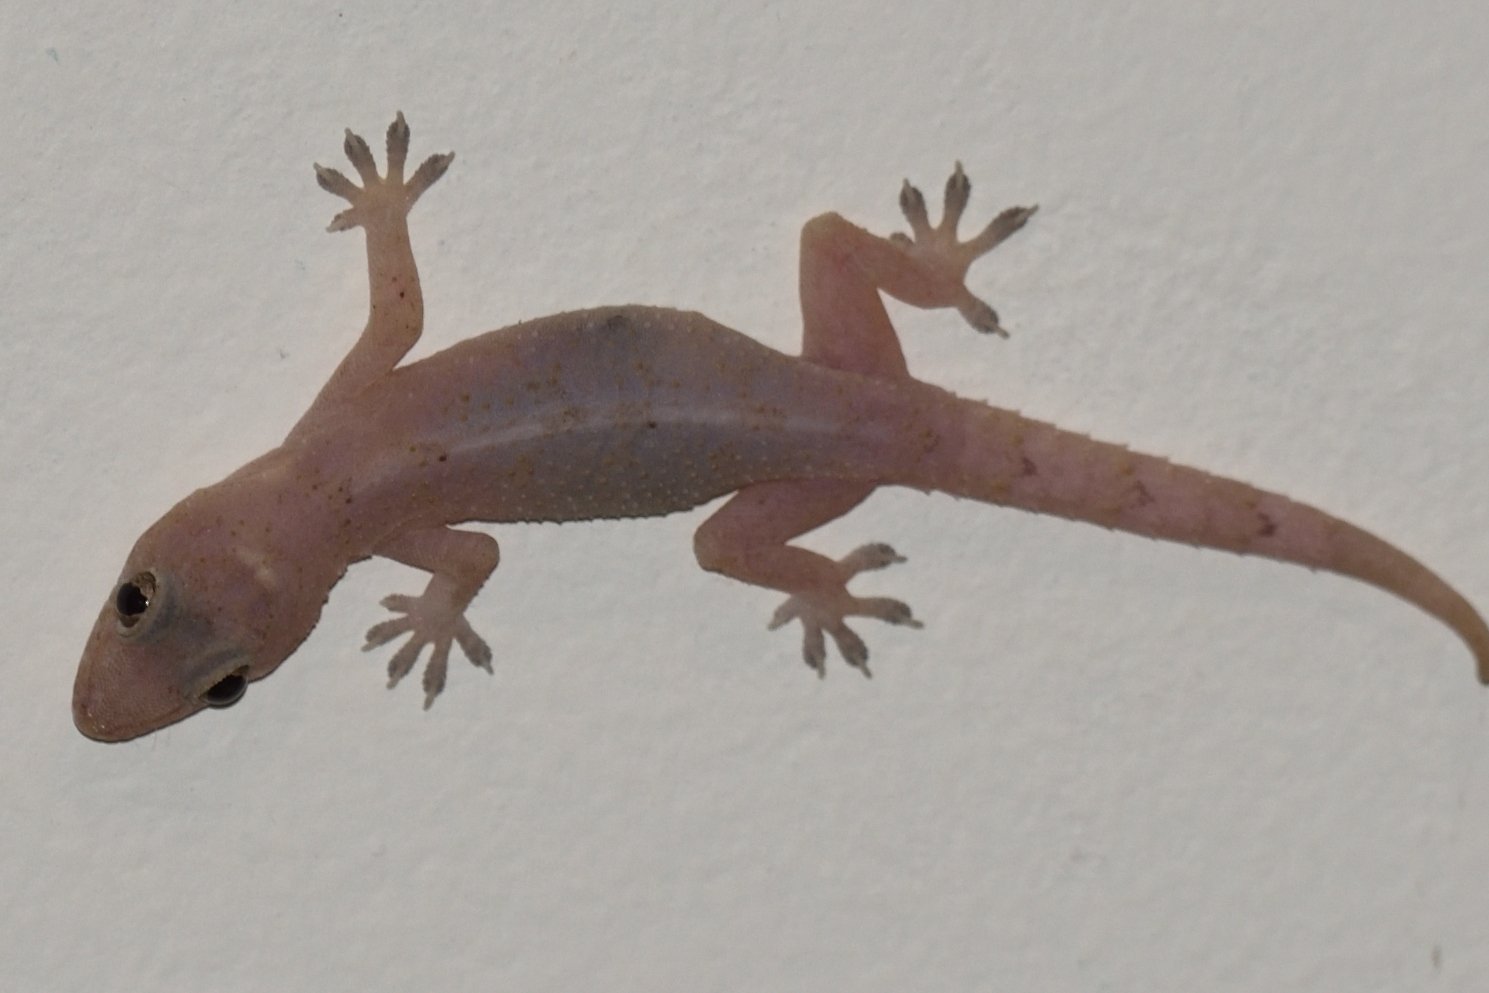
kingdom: Animalia
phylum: Chordata
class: Squamata
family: Gekkonidae
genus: Hemidactylus
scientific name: Hemidactylus mabouia
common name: House gecko
